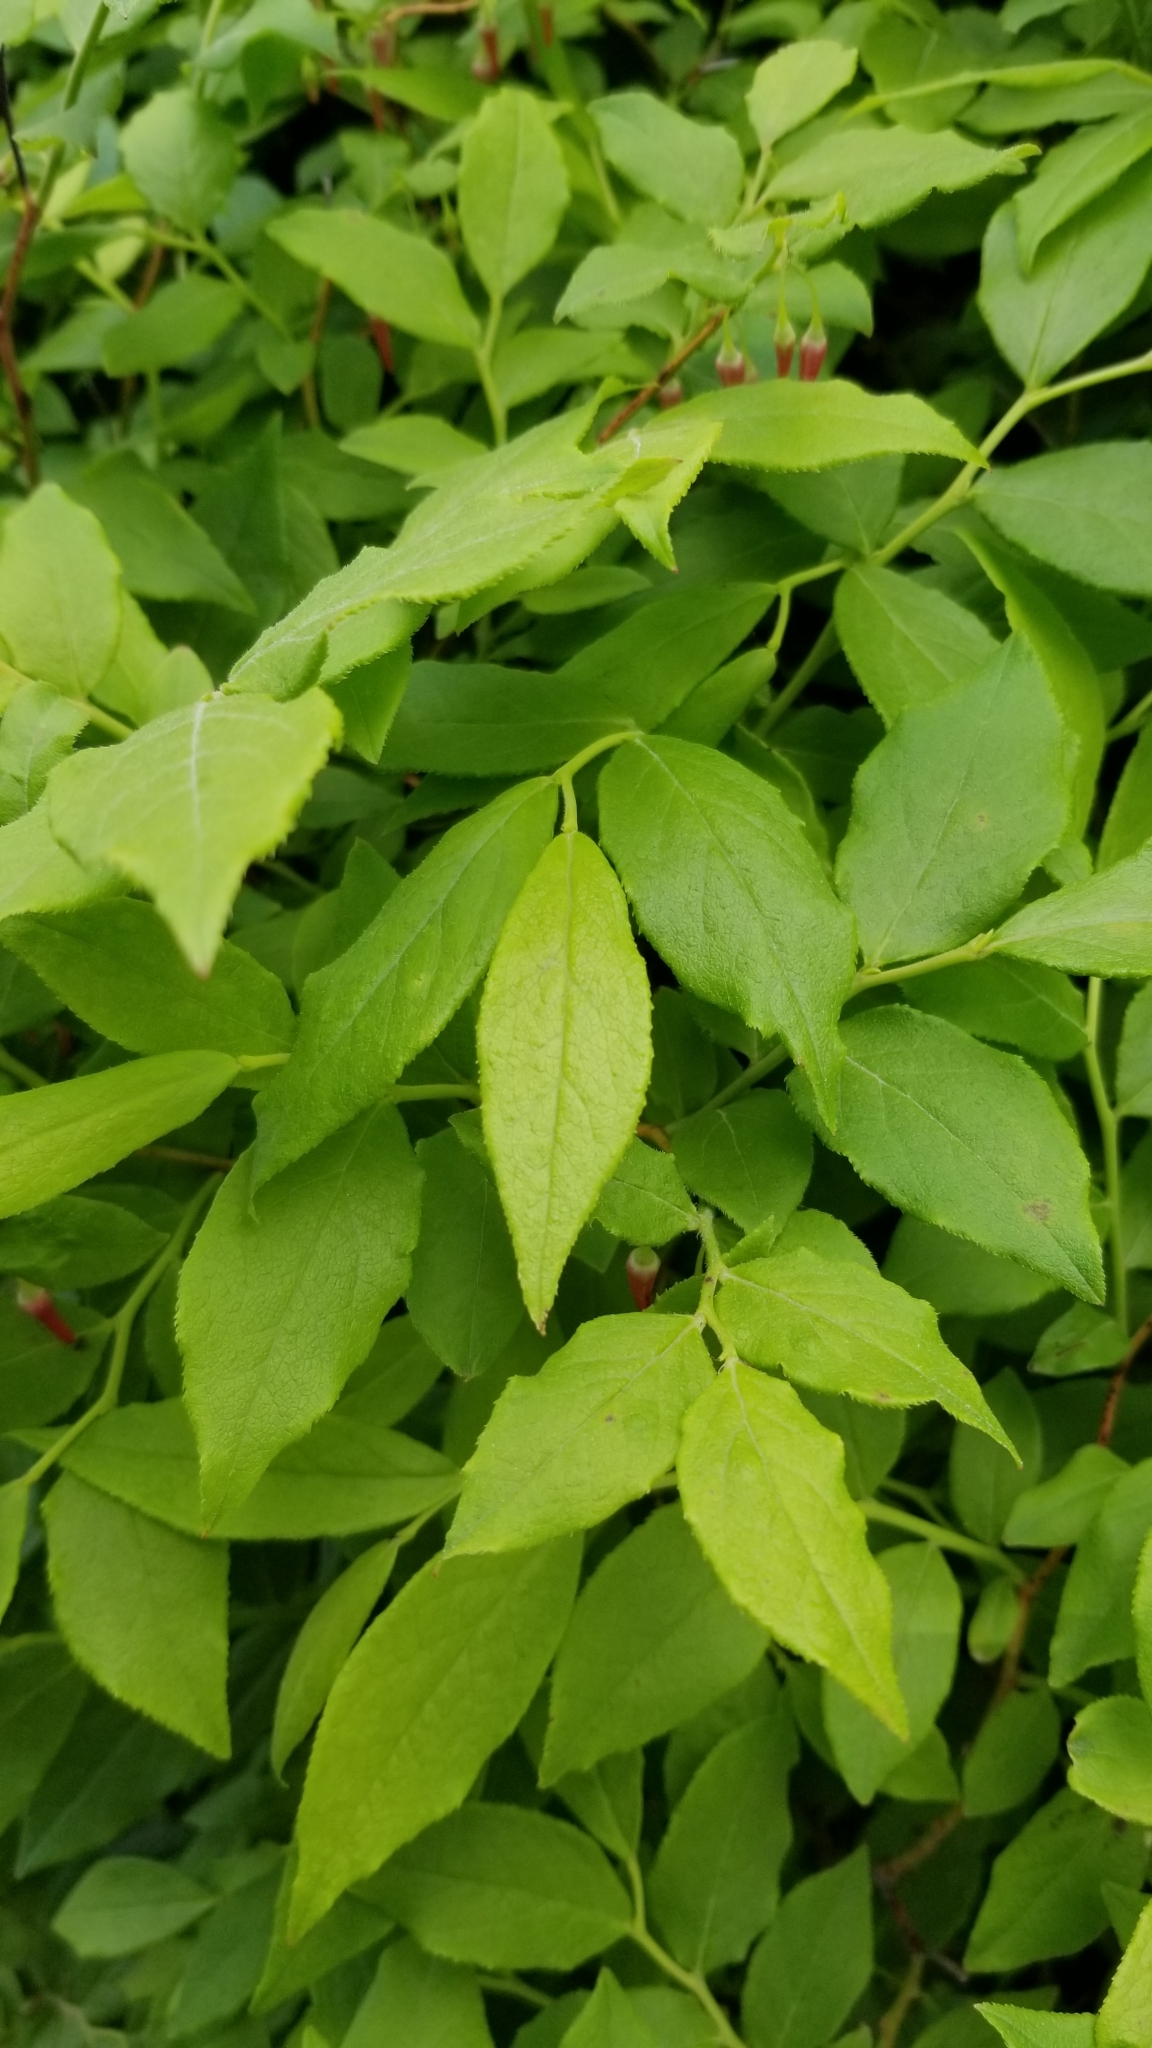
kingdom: Plantae
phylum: Tracheophyta
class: Magnoliopsida
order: Ericales
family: Ericaceae
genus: Vaccinium
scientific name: Vaccinium erythrocarpum
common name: Bearberry
